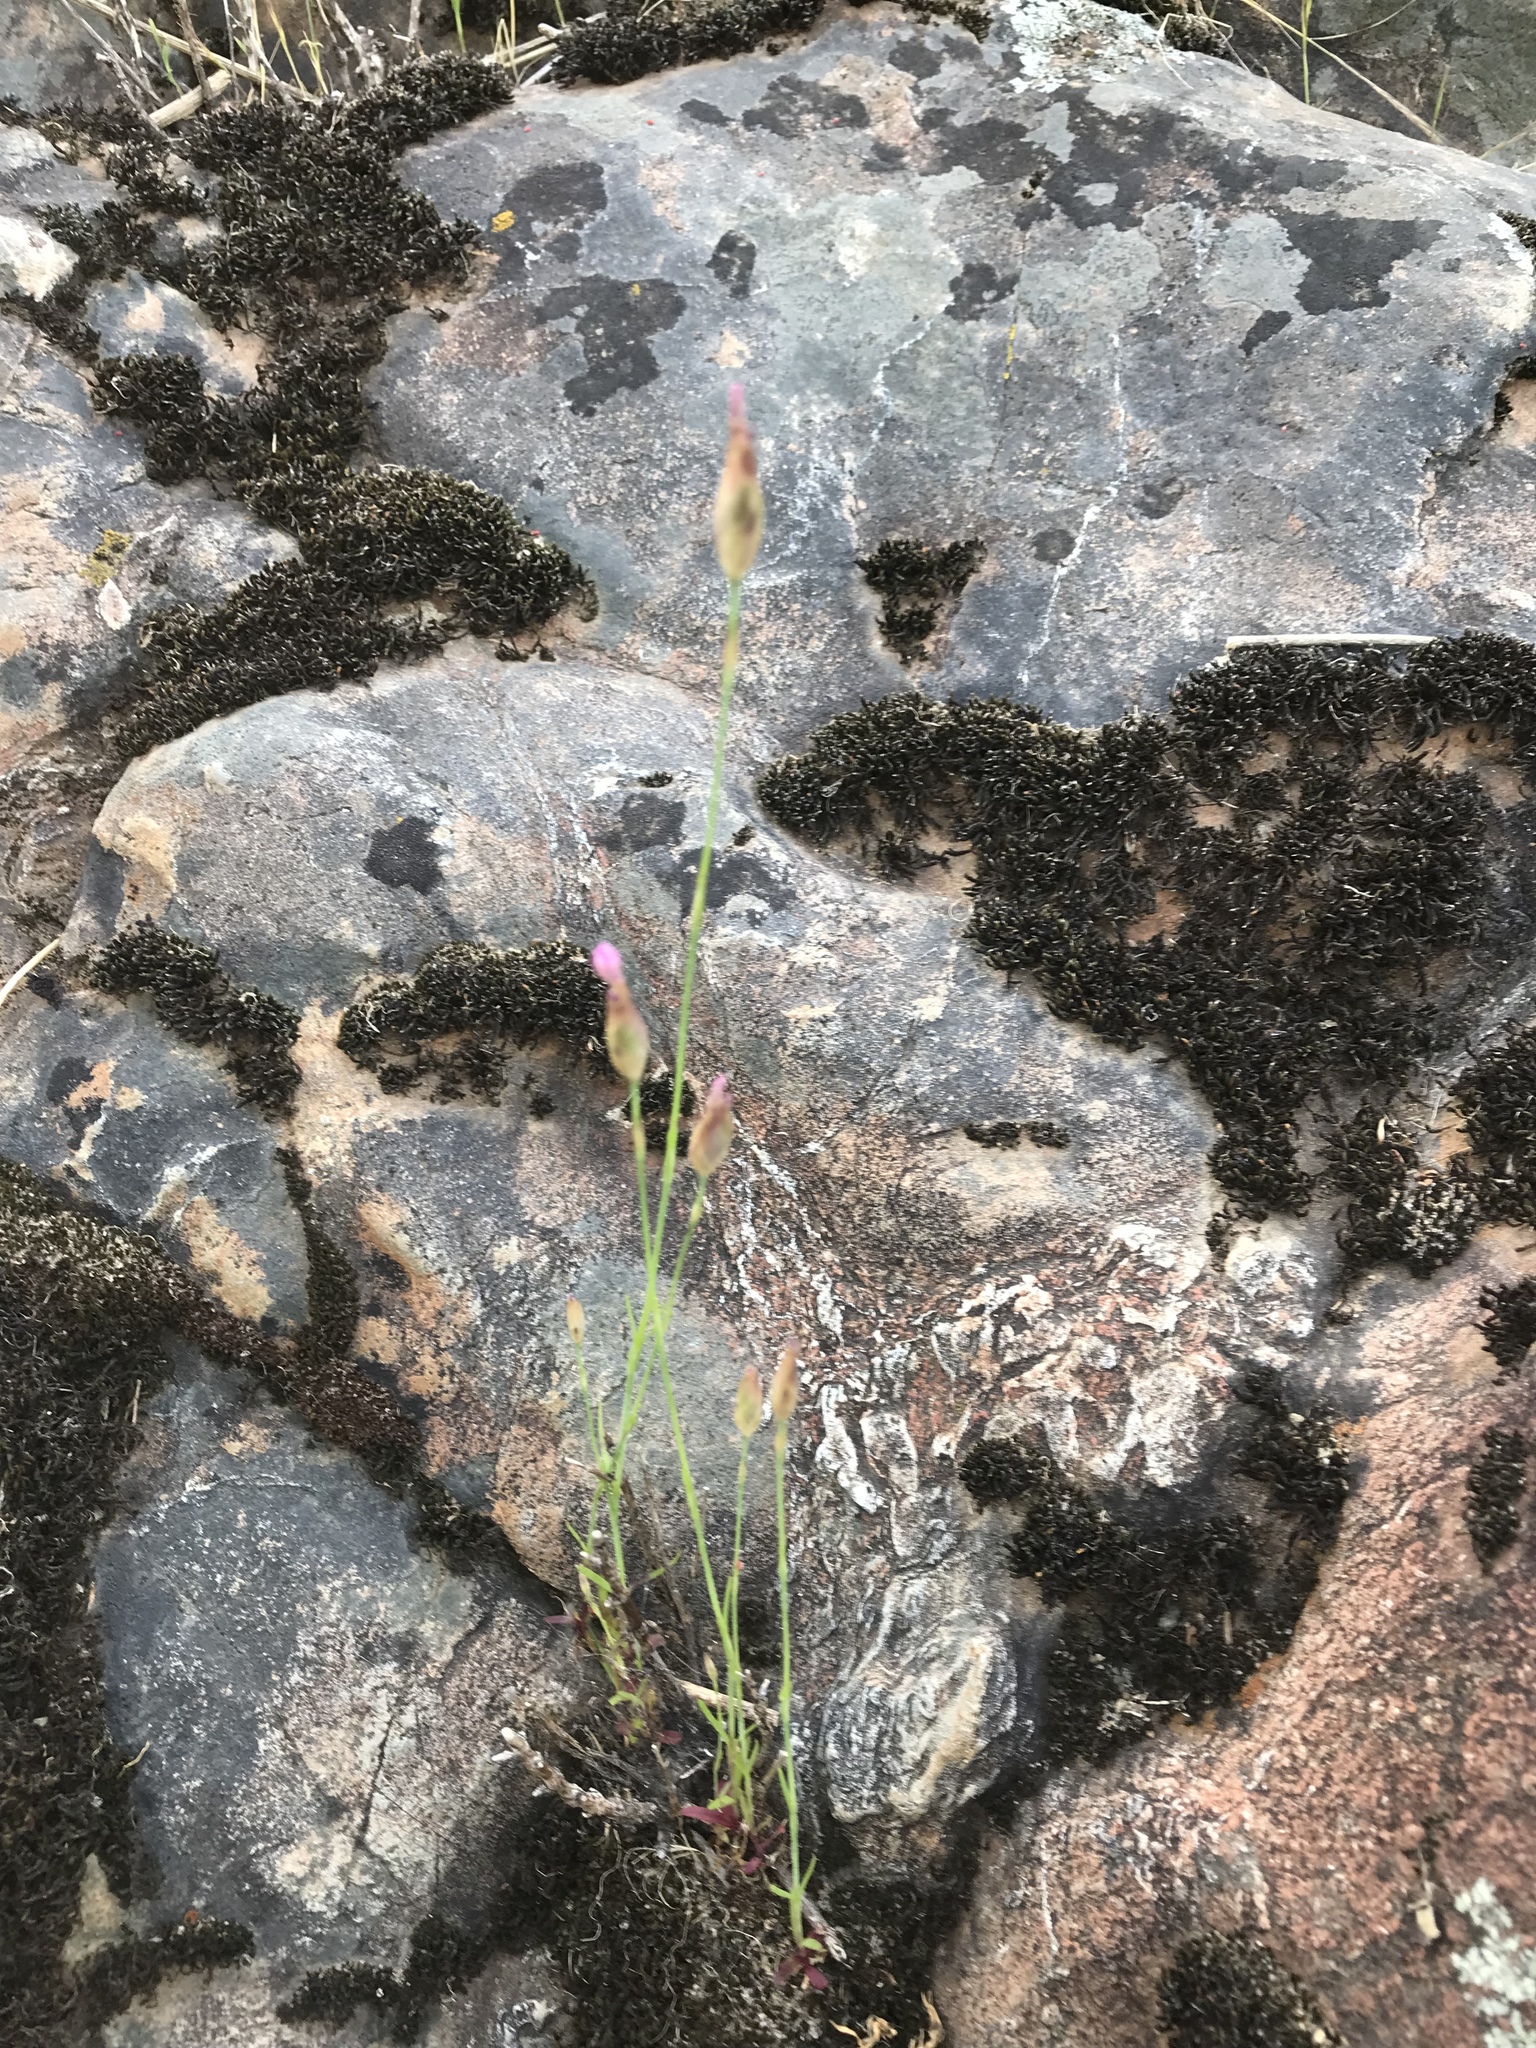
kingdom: Plantae
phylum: Tracheophyta
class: Magnoliopsida
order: Caryophyllales
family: Caryophyllaceae
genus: Petrorhagia
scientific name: Petrorhagia dubia
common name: Hairypink
